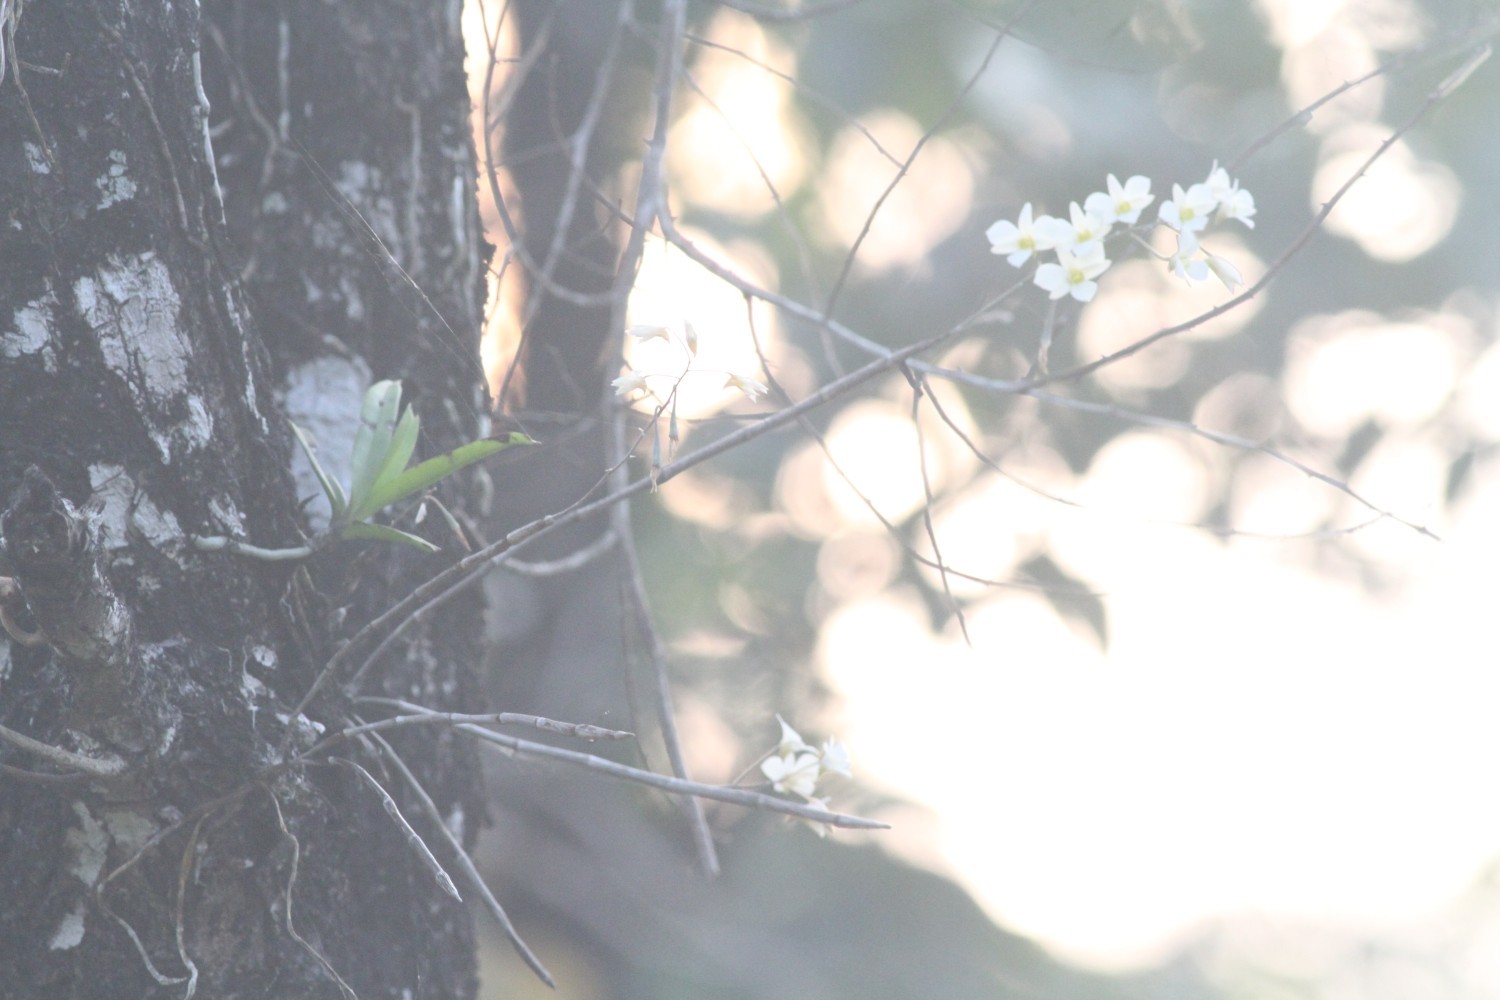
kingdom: Plantae
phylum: Tracheophyta
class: Liliopsida
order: Asparagales
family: Orchidaceae
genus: Dendrobium
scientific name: Dendrobium ovatum
